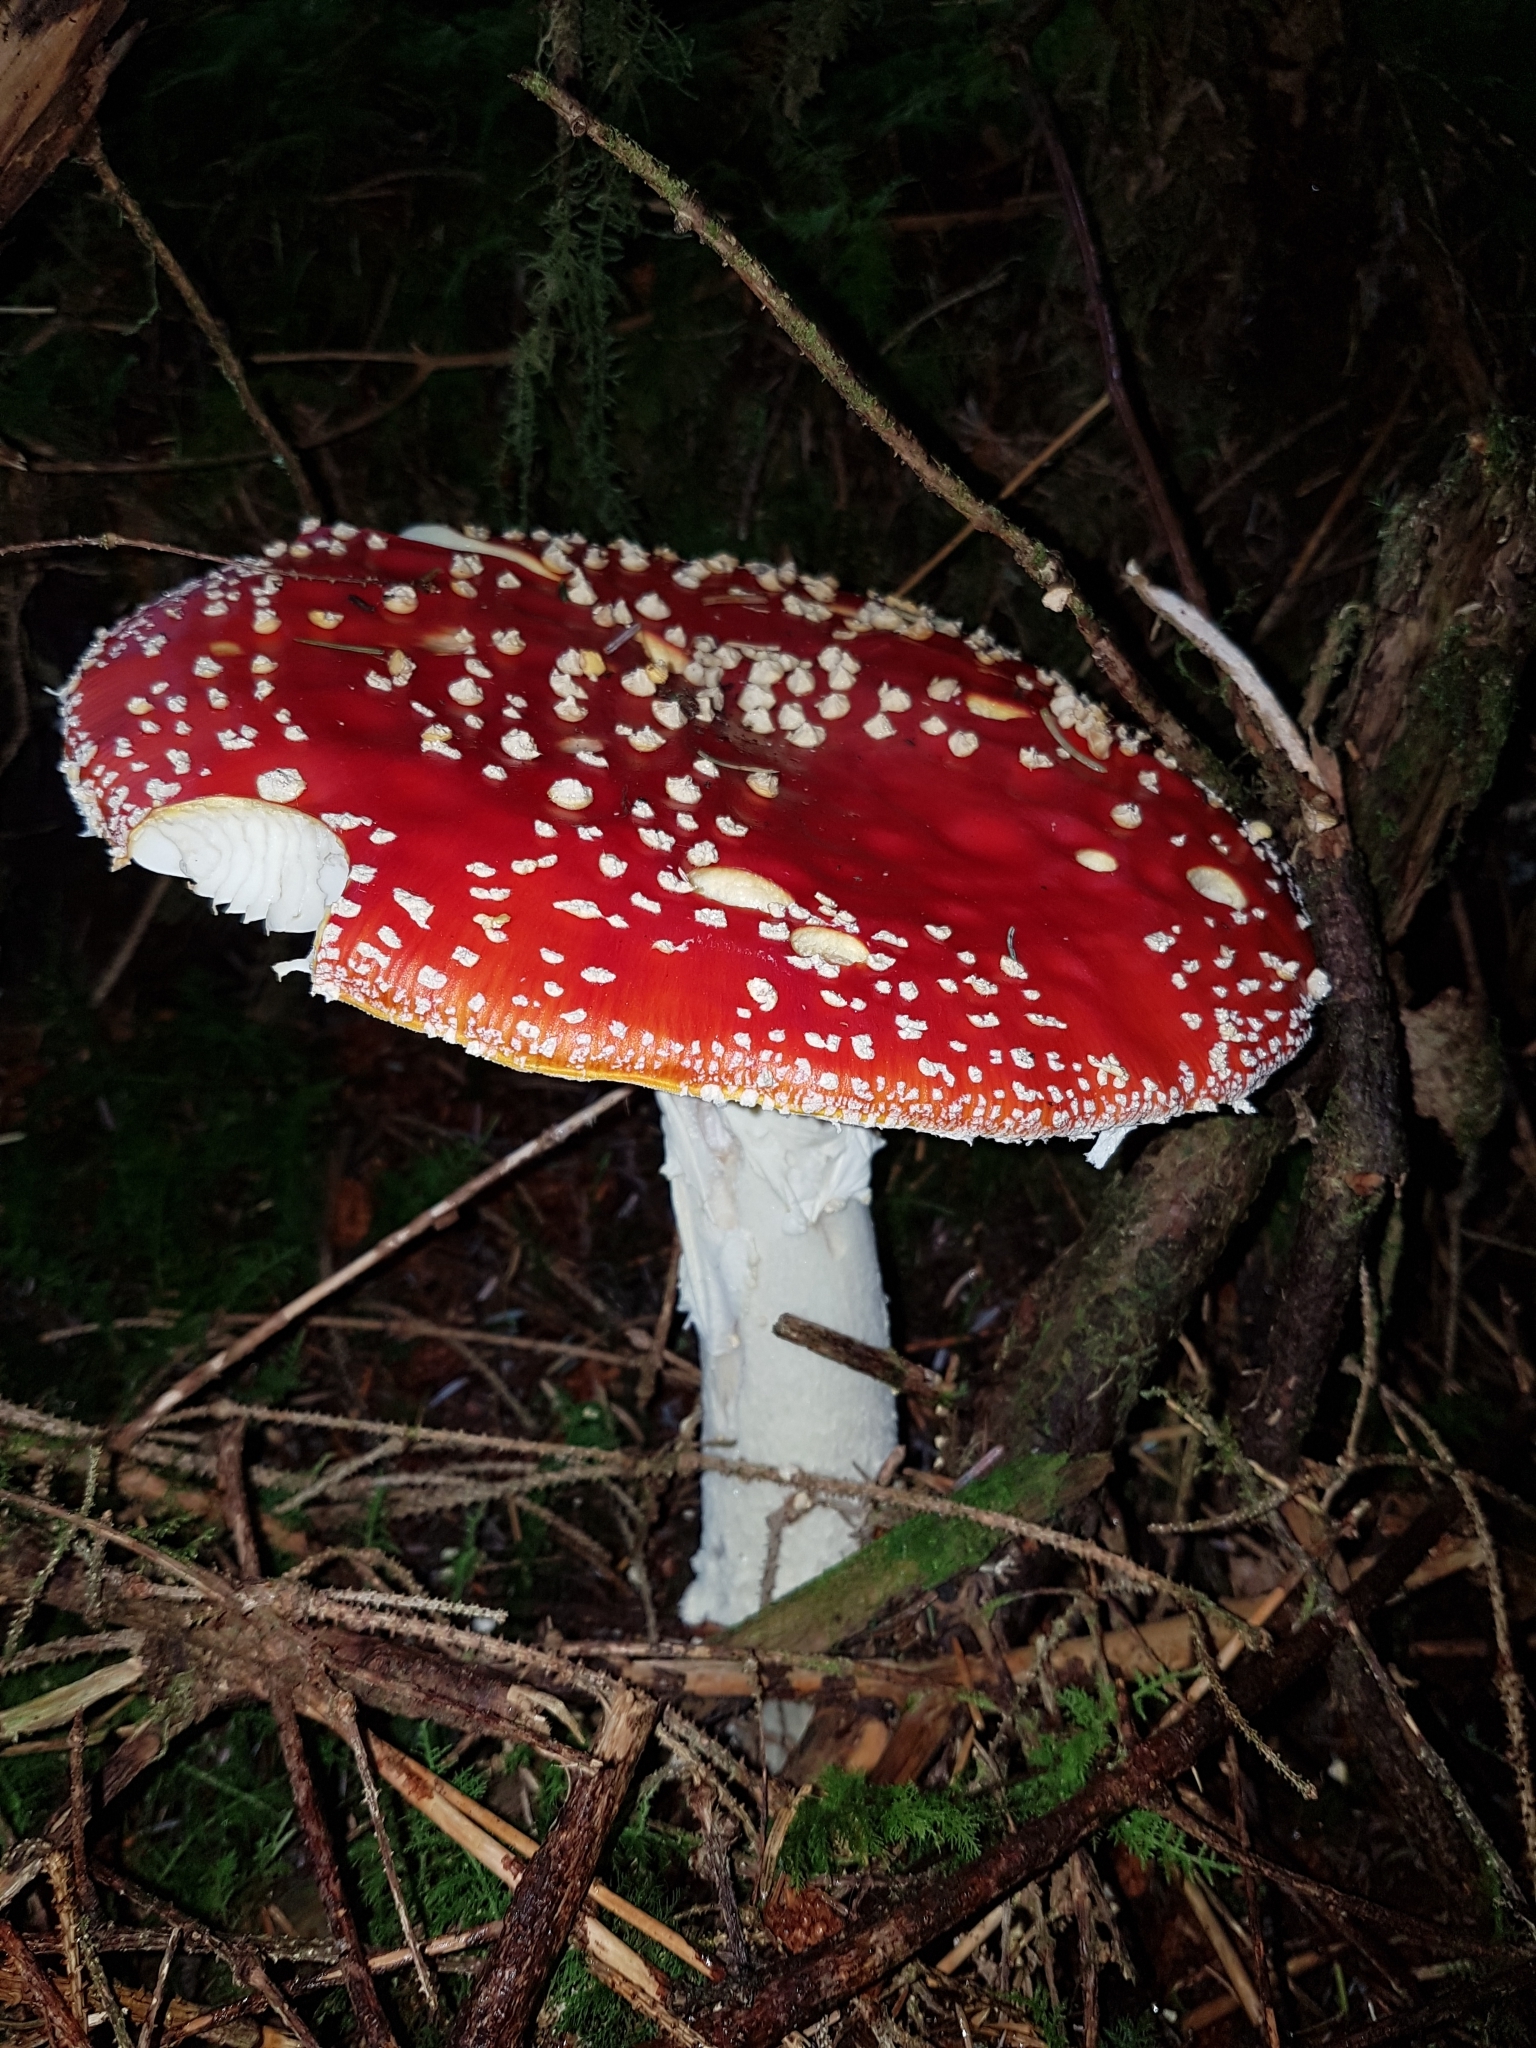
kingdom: Fungi
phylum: Basidiomycota
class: Agaricomycetes
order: Agaricales
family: Amanitaceae
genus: Amanita
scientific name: Amanita muscaria
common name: Fly agaric
